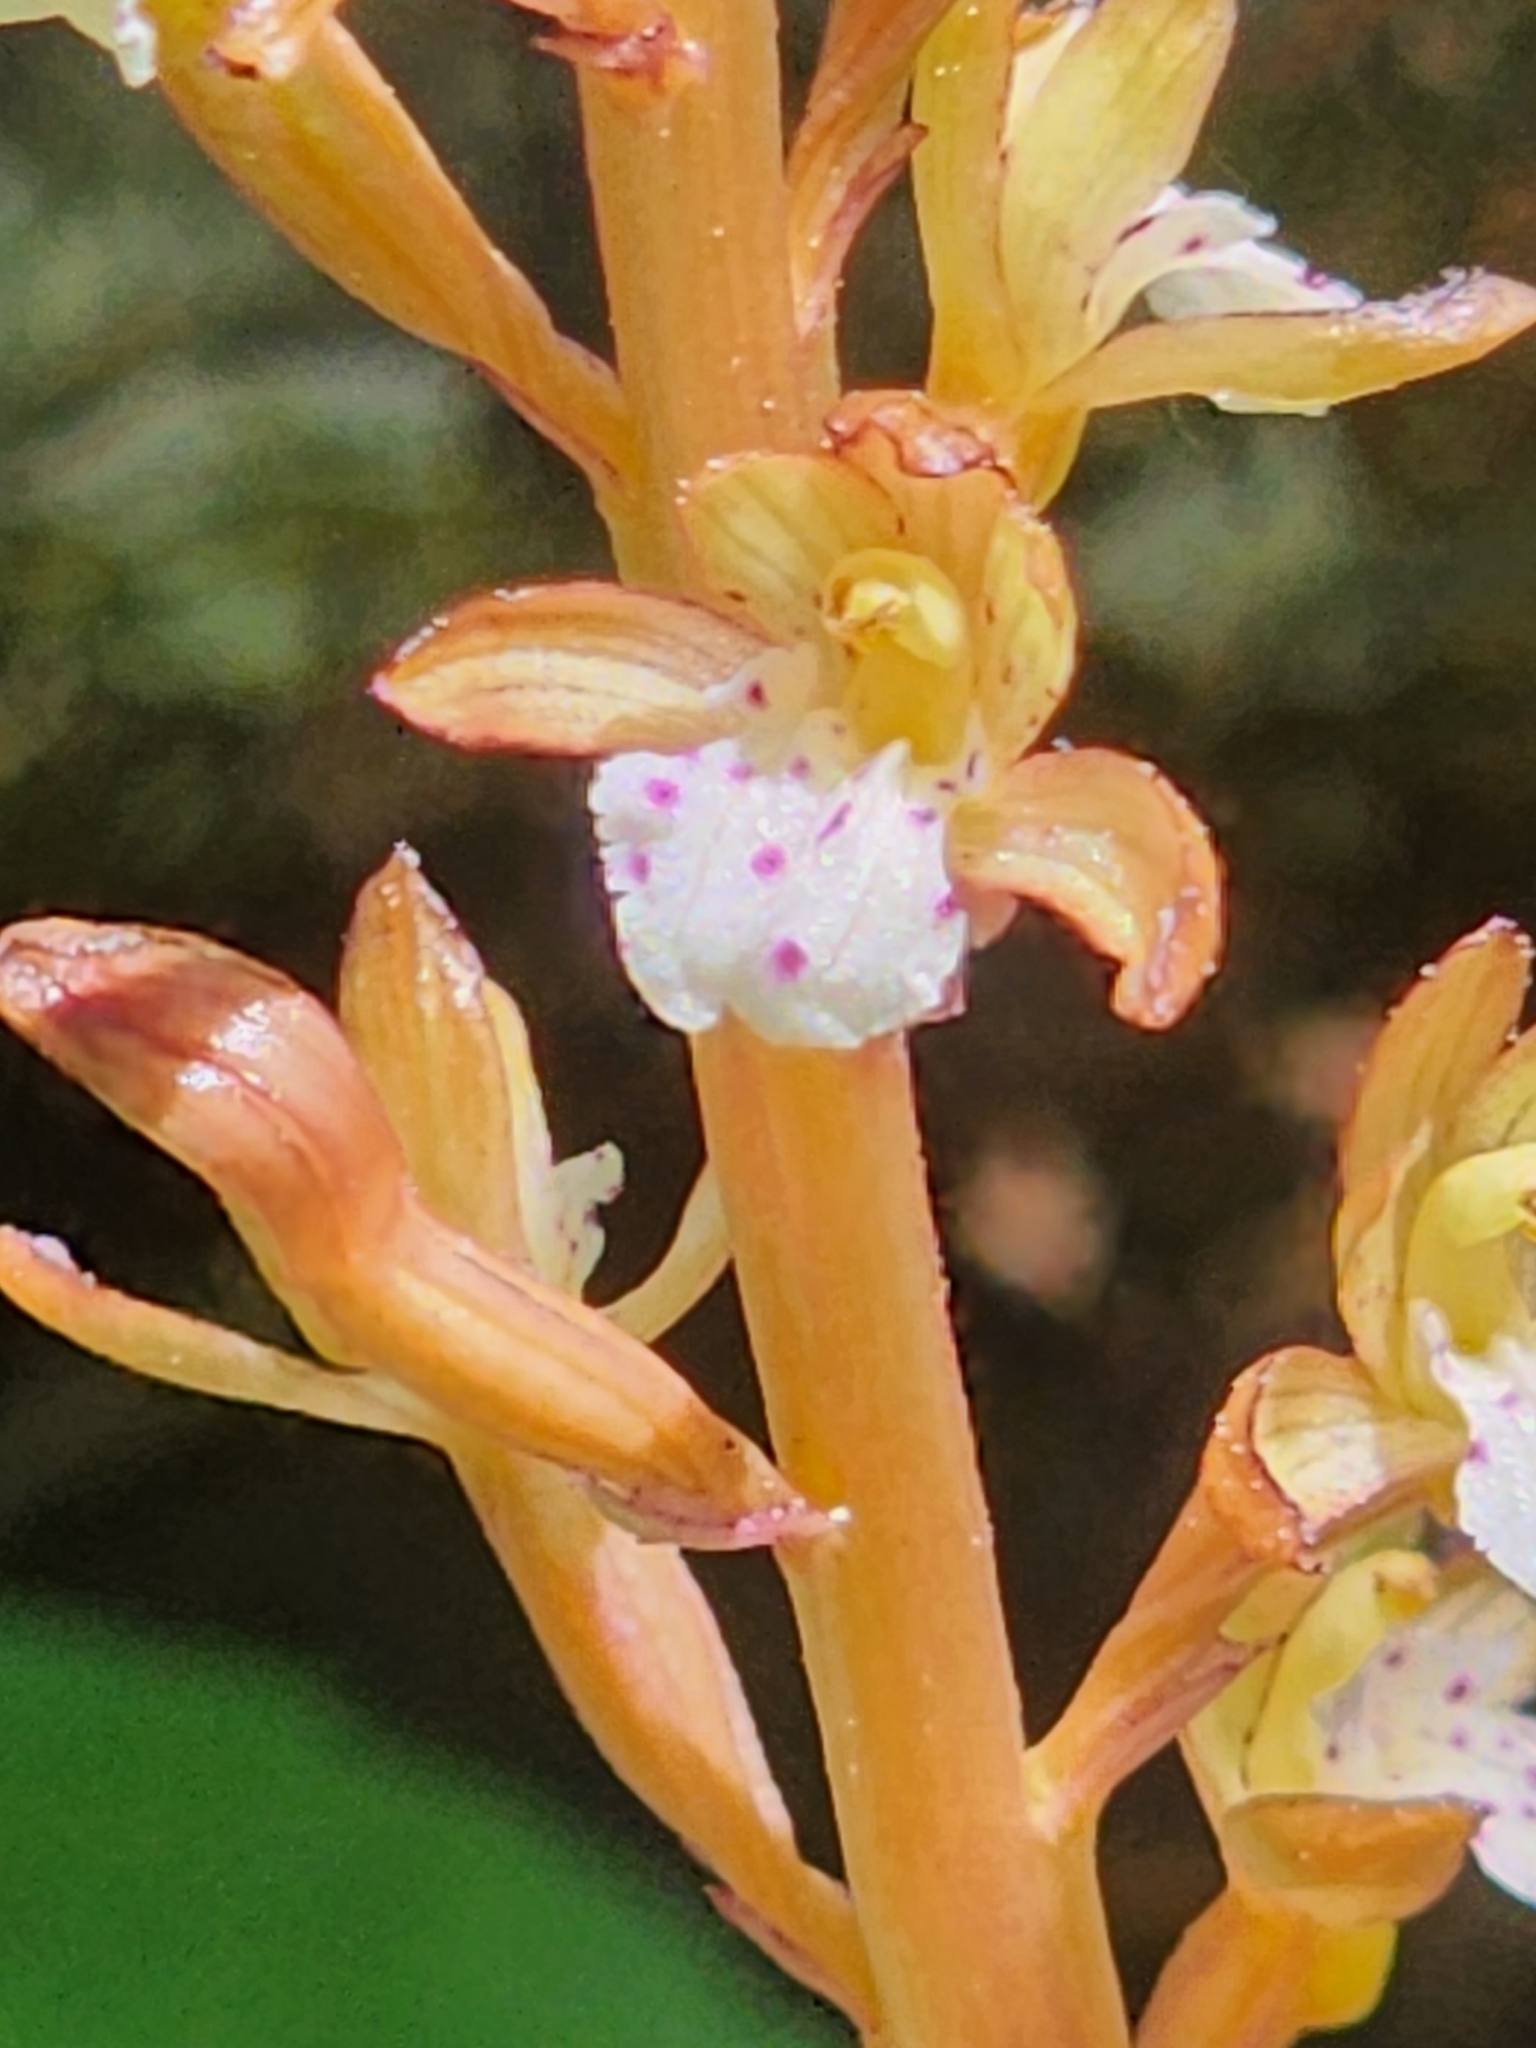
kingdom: Plantae
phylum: Tracheophyta
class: Liliopsida
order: Asparagales
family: Orchidaceae
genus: Corallorhiza
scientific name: Corallorhiza maculata
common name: Spotted coralroot
